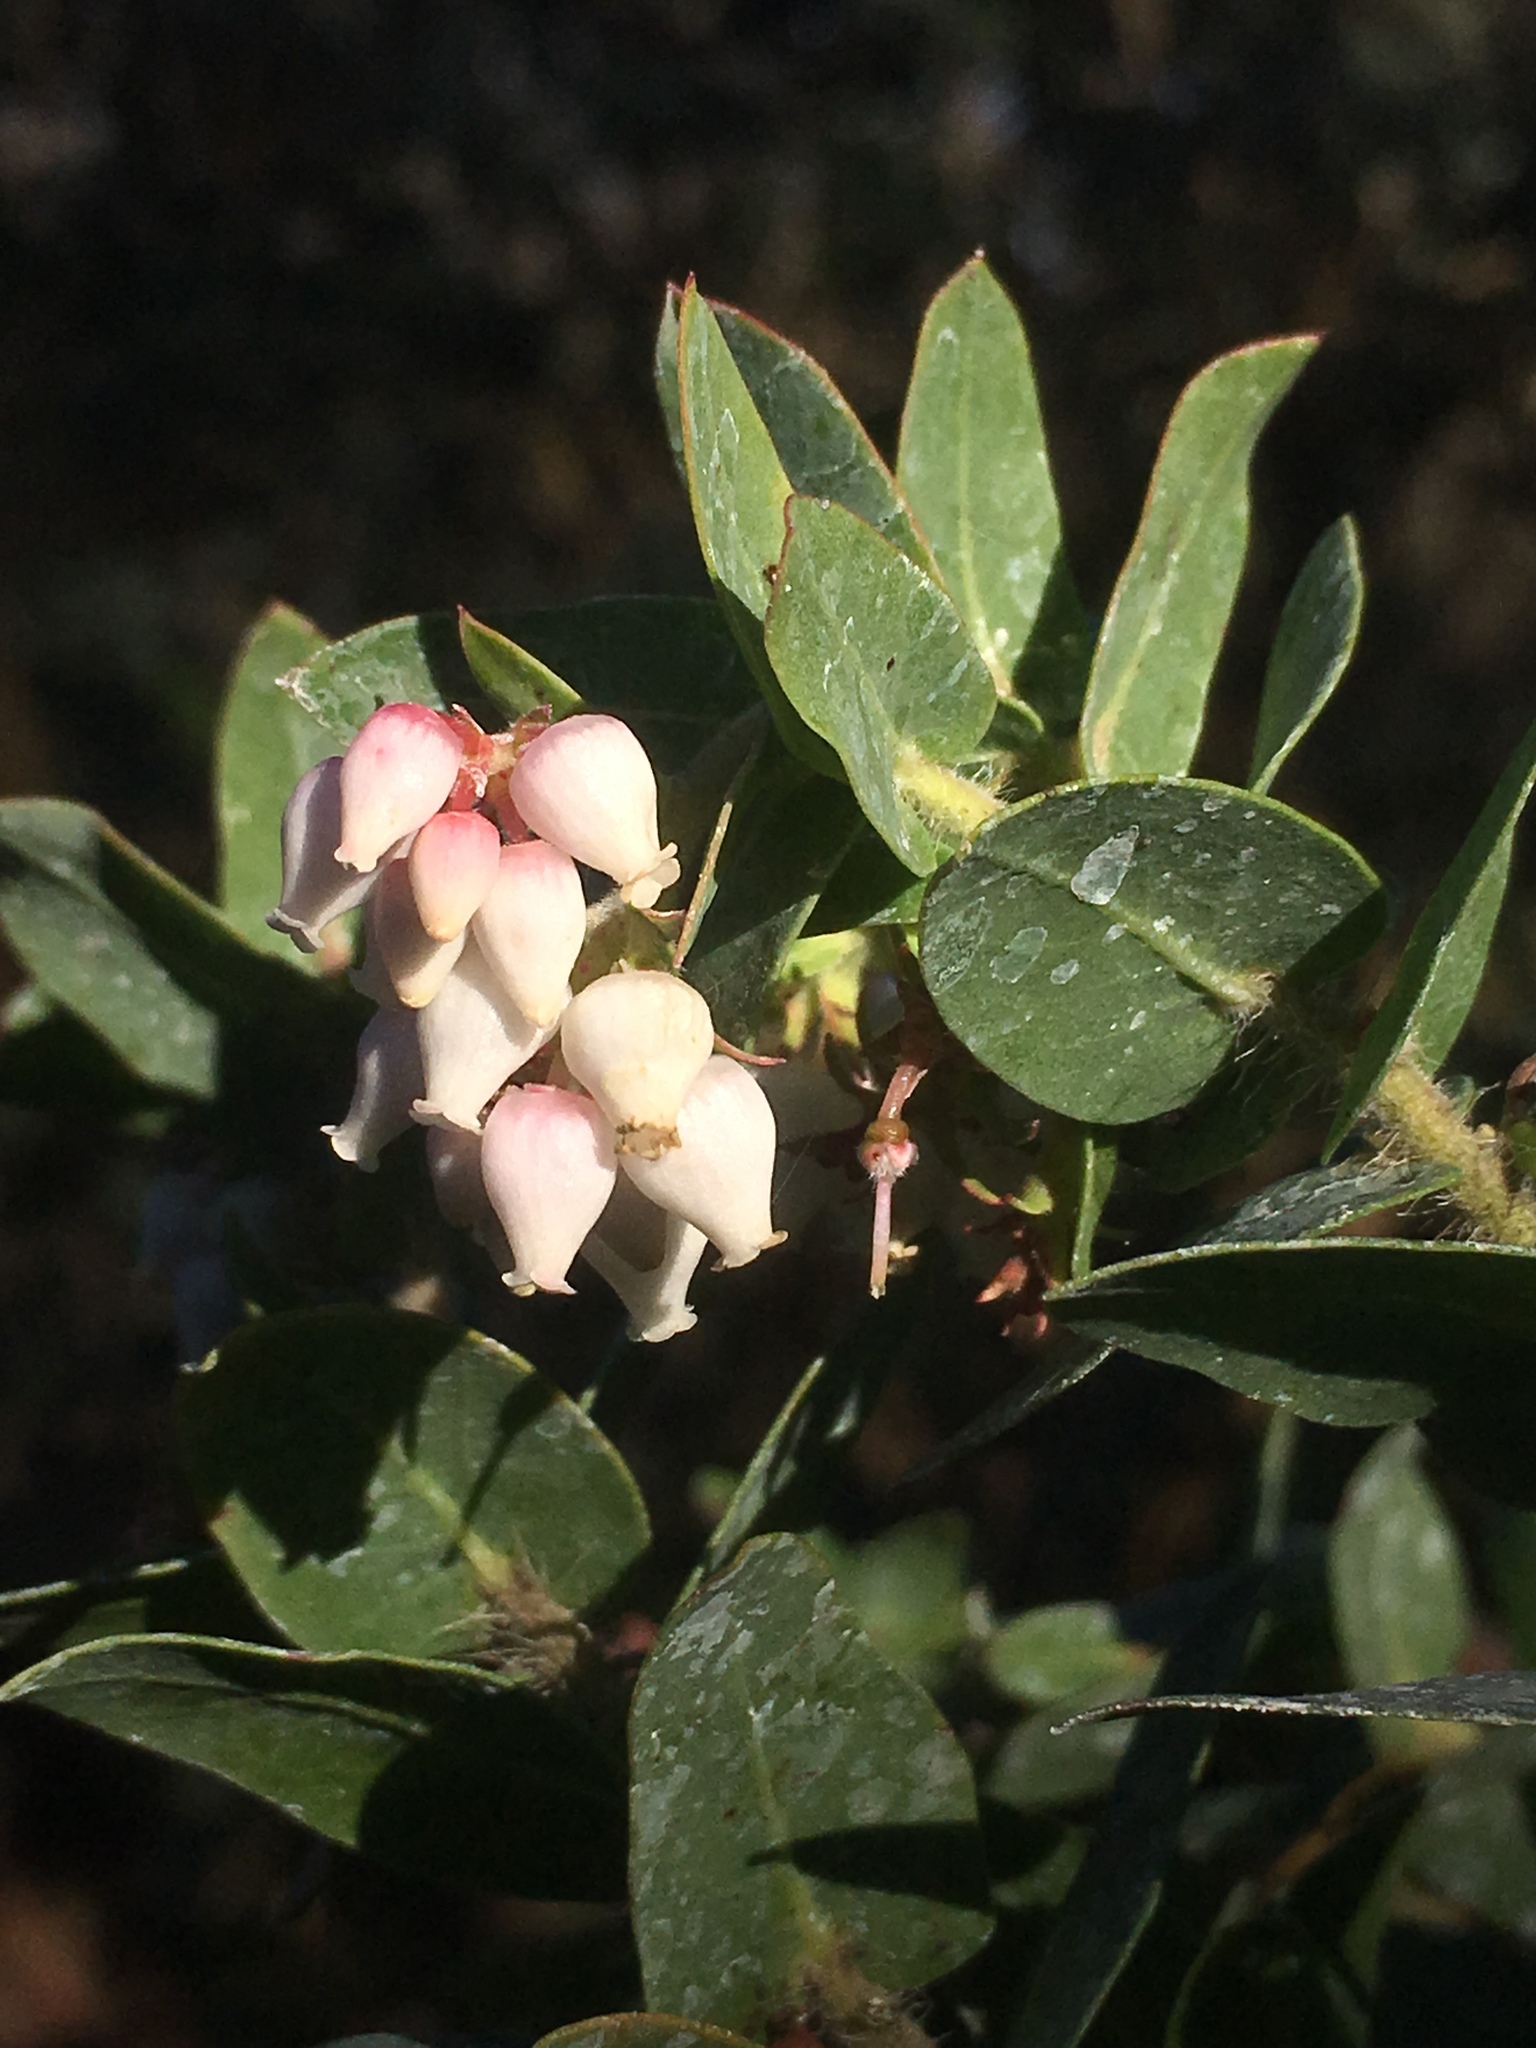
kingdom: Plantae
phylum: Tracheophyta
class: Magnoliopsida
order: Ericales
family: Ericaceae
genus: Arctostaphylos
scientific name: Arctostaphylos pajaroensis
